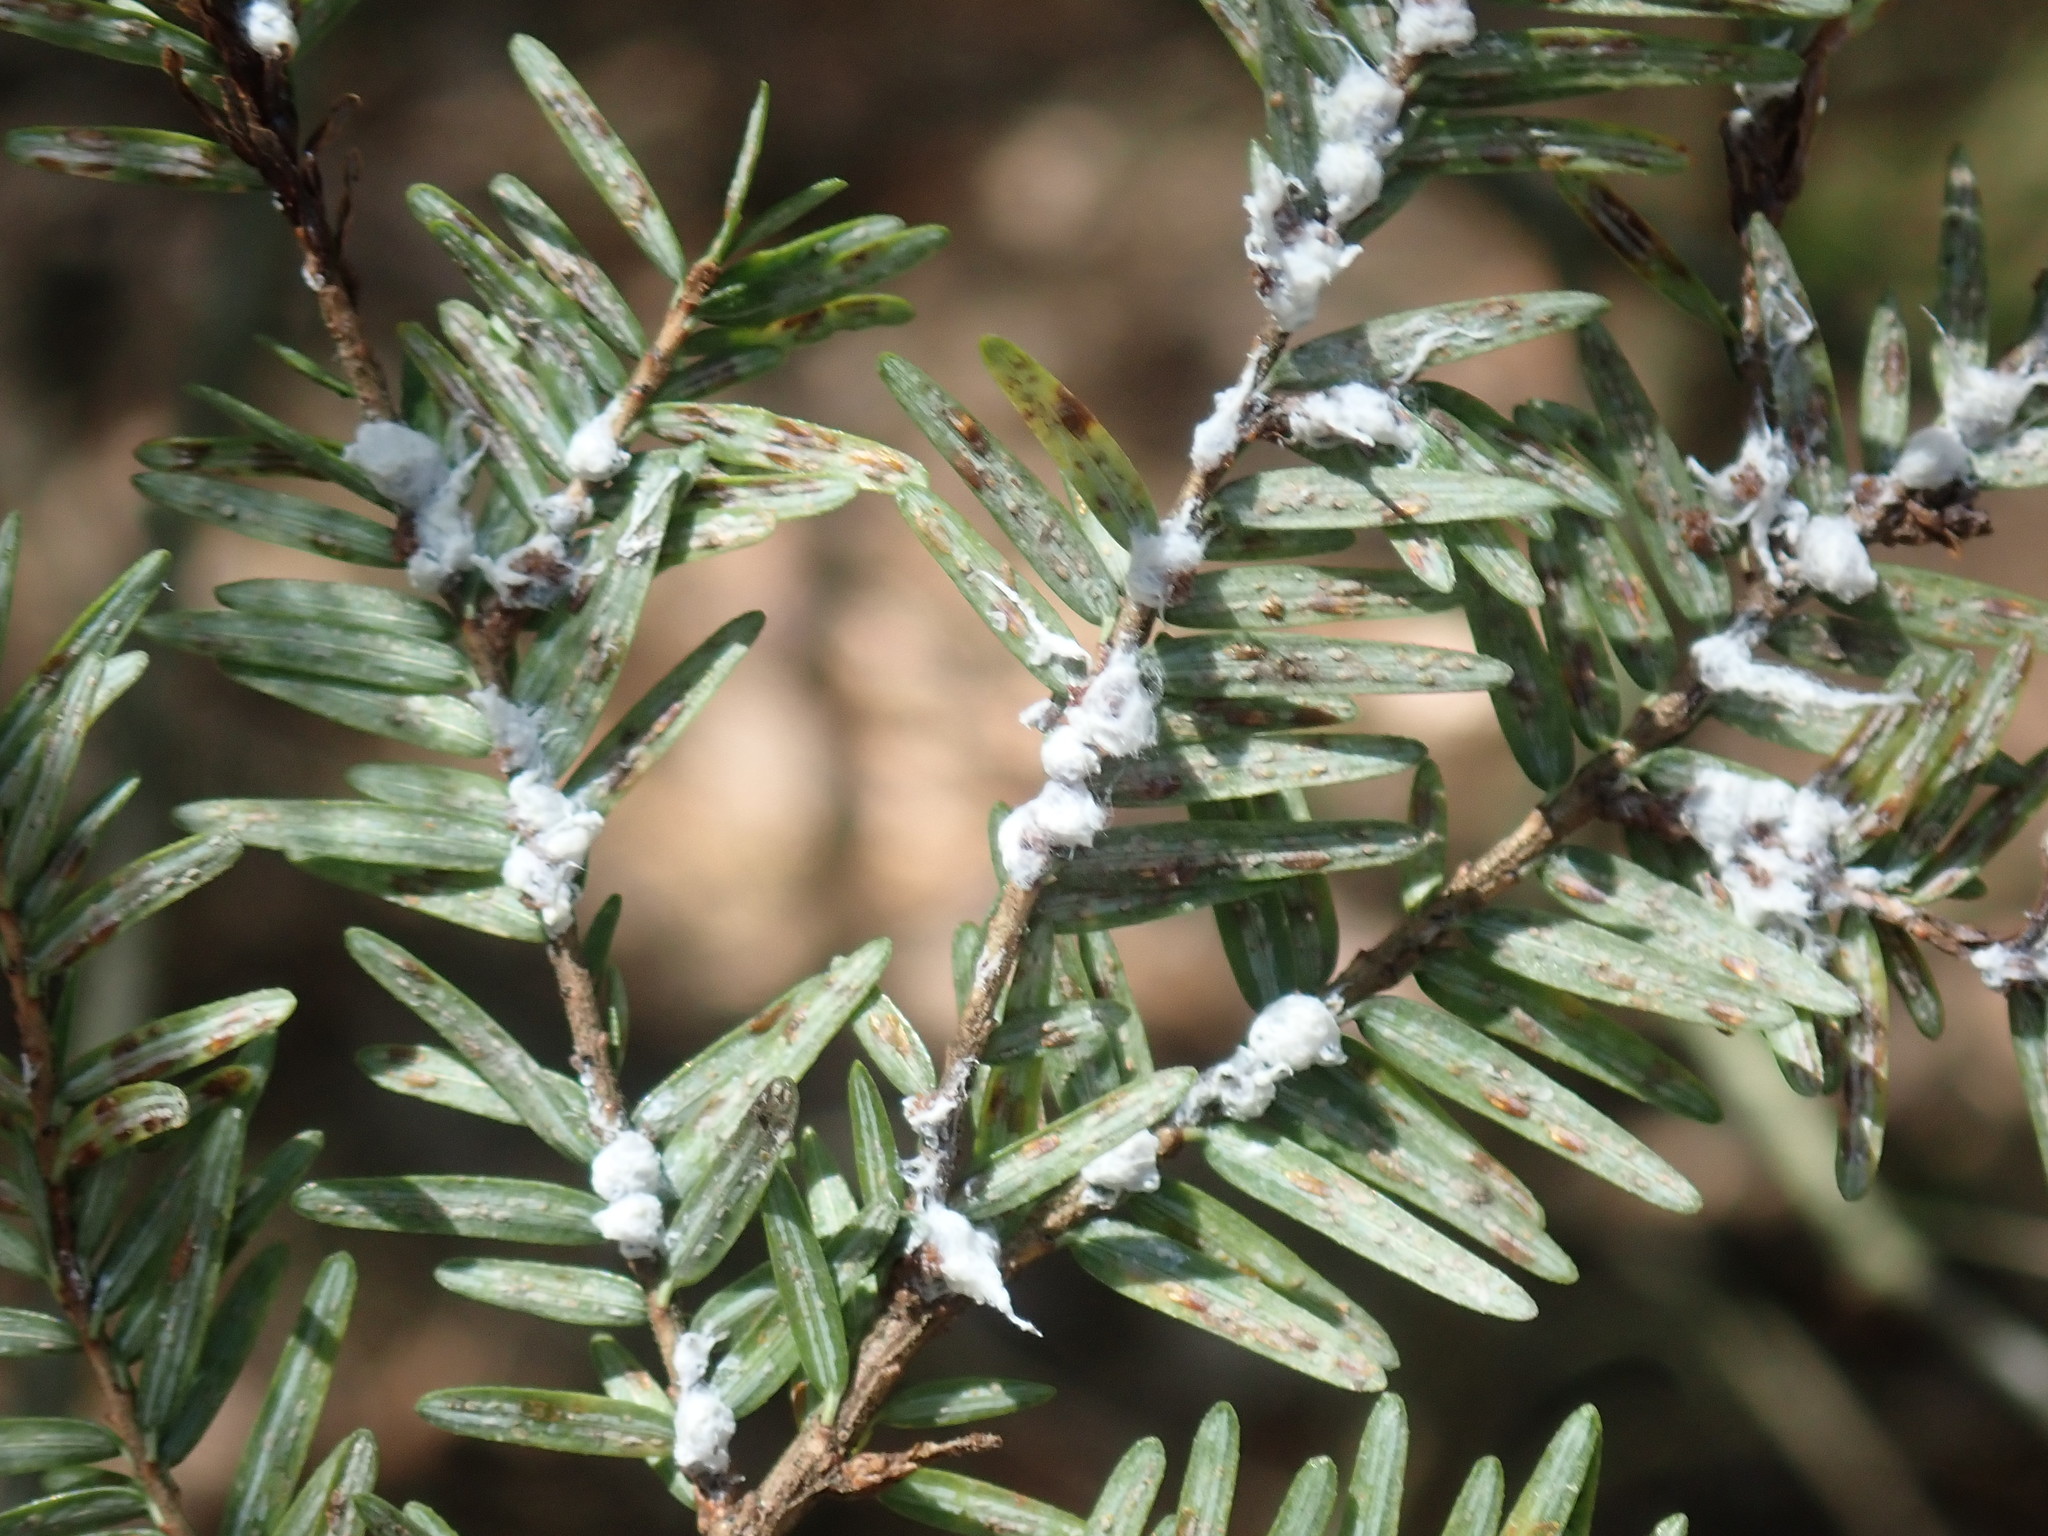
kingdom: Animalia
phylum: Arthropoda
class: Insecta
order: Hemiptera
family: Adelgidae
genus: Adelges
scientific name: Adelges tsugae
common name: Hemlock woolly adelgid
